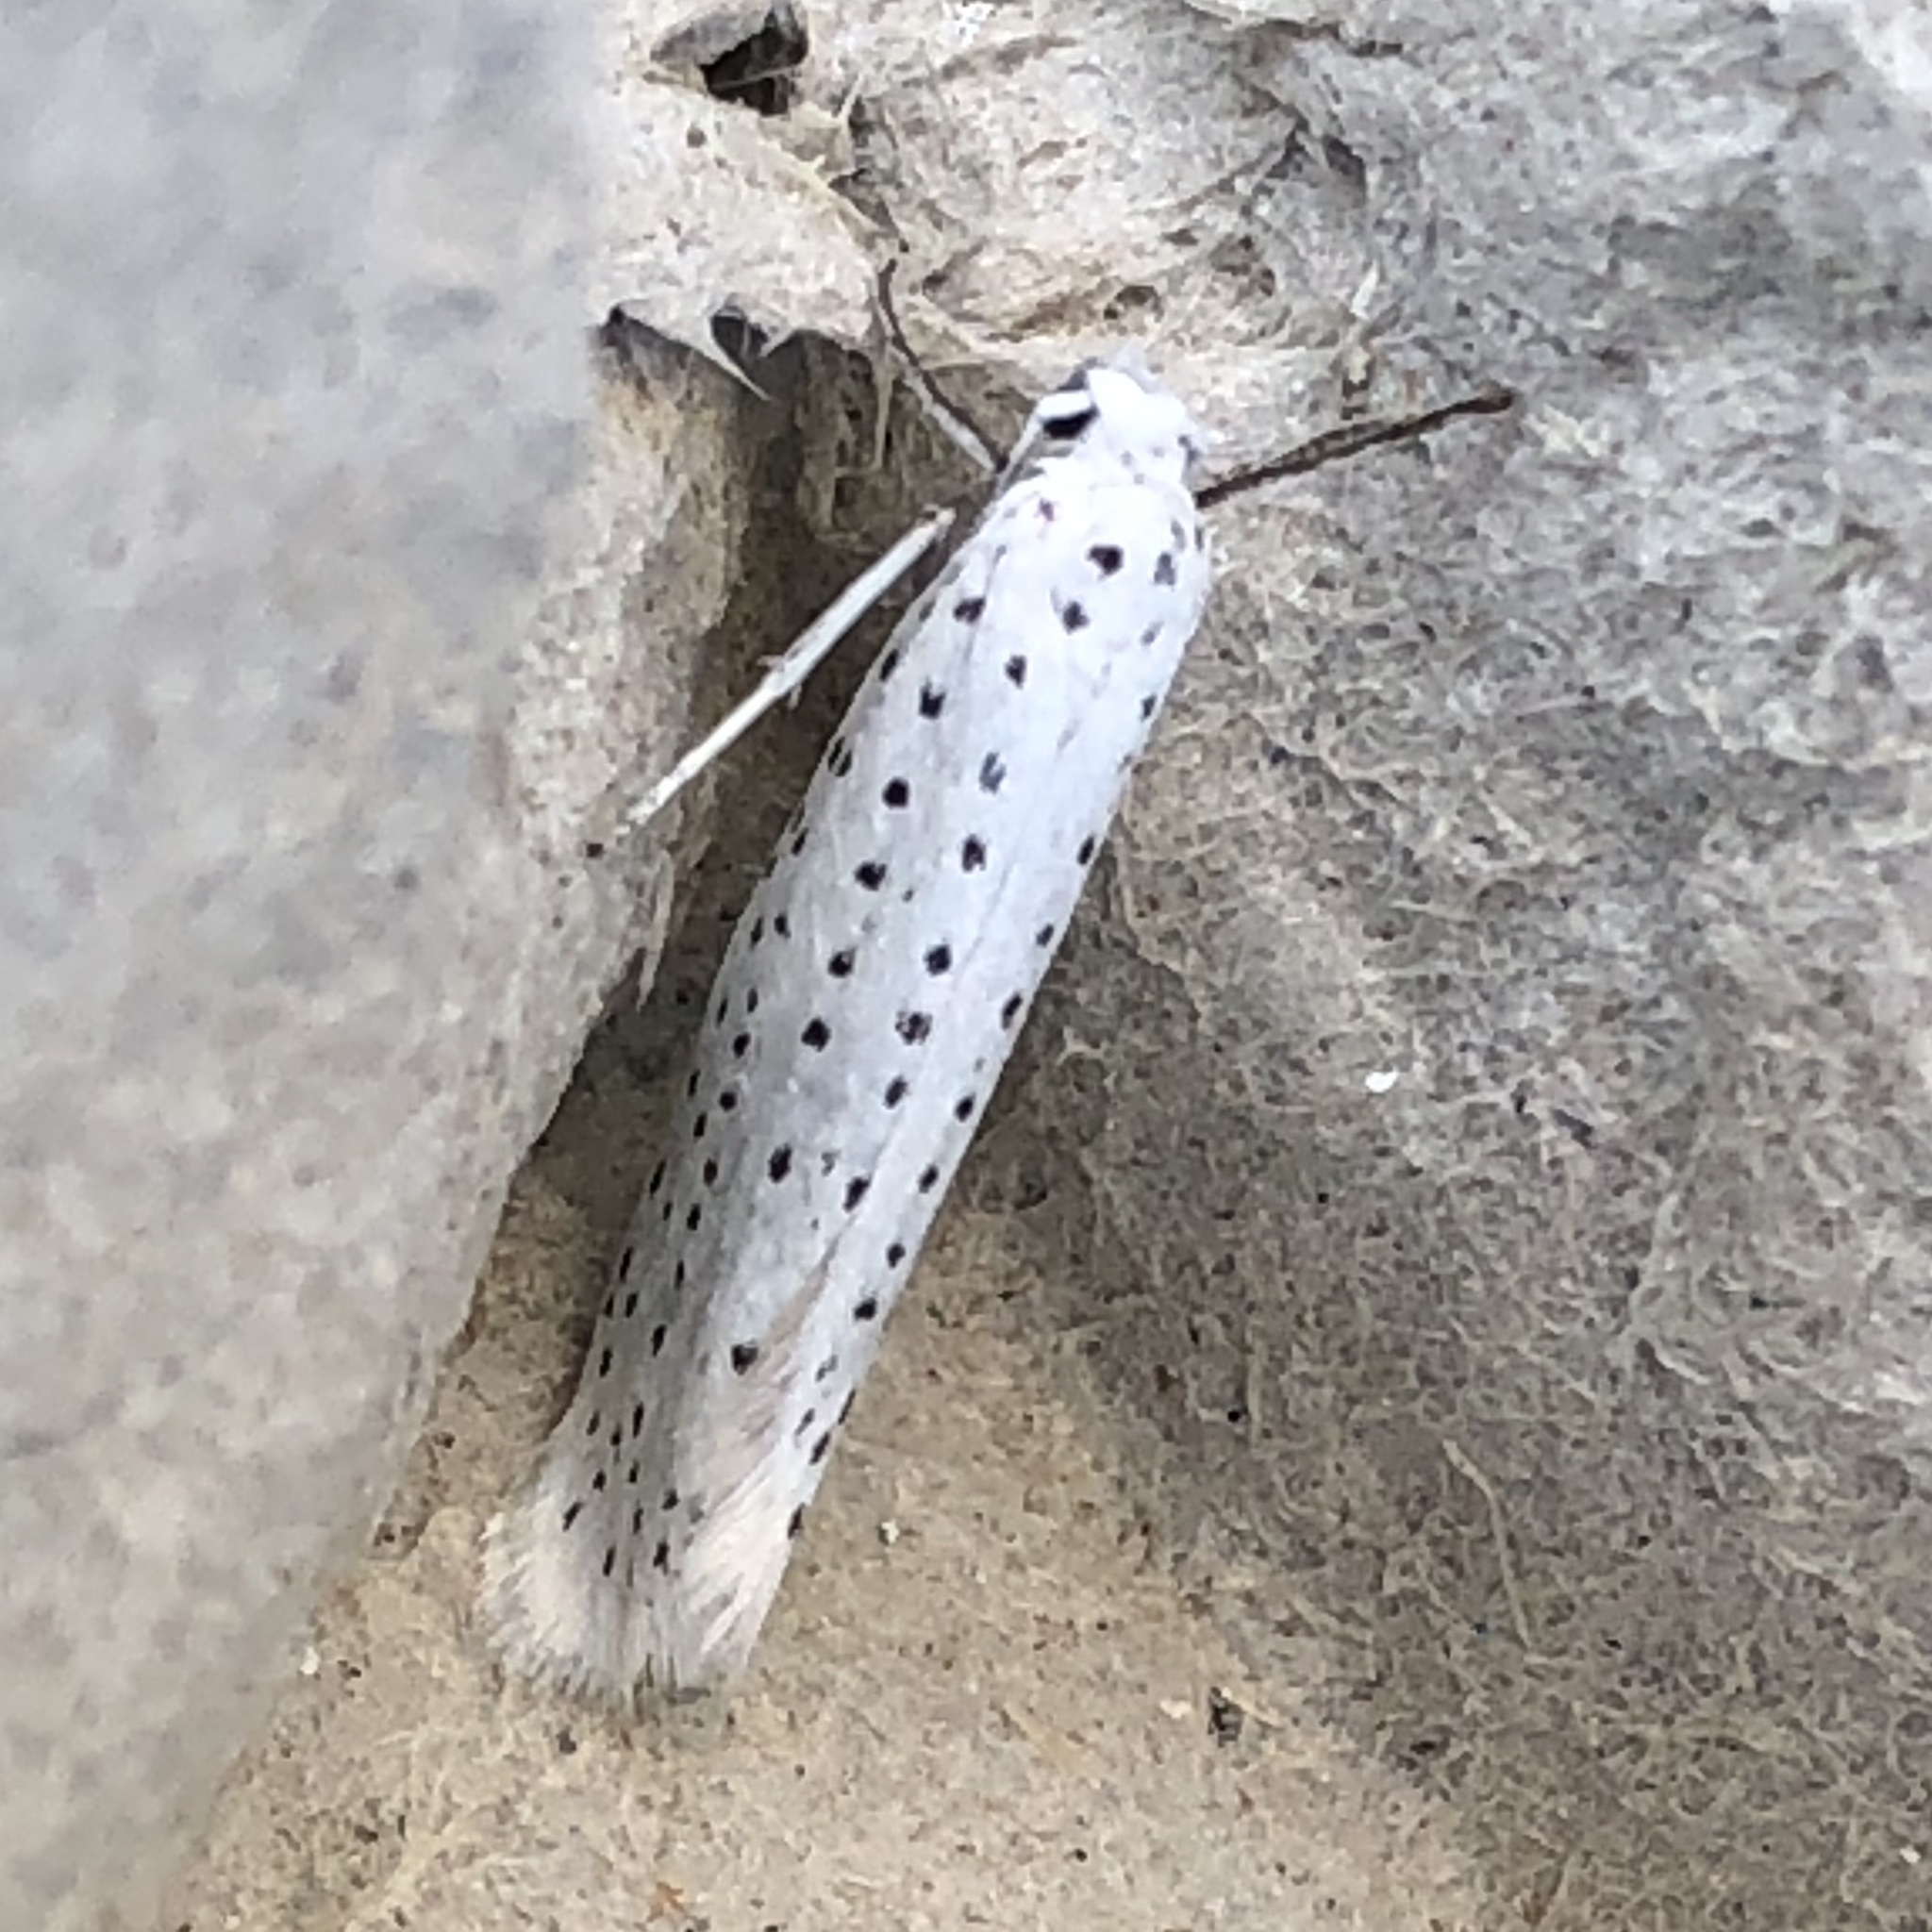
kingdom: Animalia
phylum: Arthropoda
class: Insecta
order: Lepidoptera
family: Yponomeutidae
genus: Yponomeuta
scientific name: Yponomeuta evonymella
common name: Bird-cherry ermine
